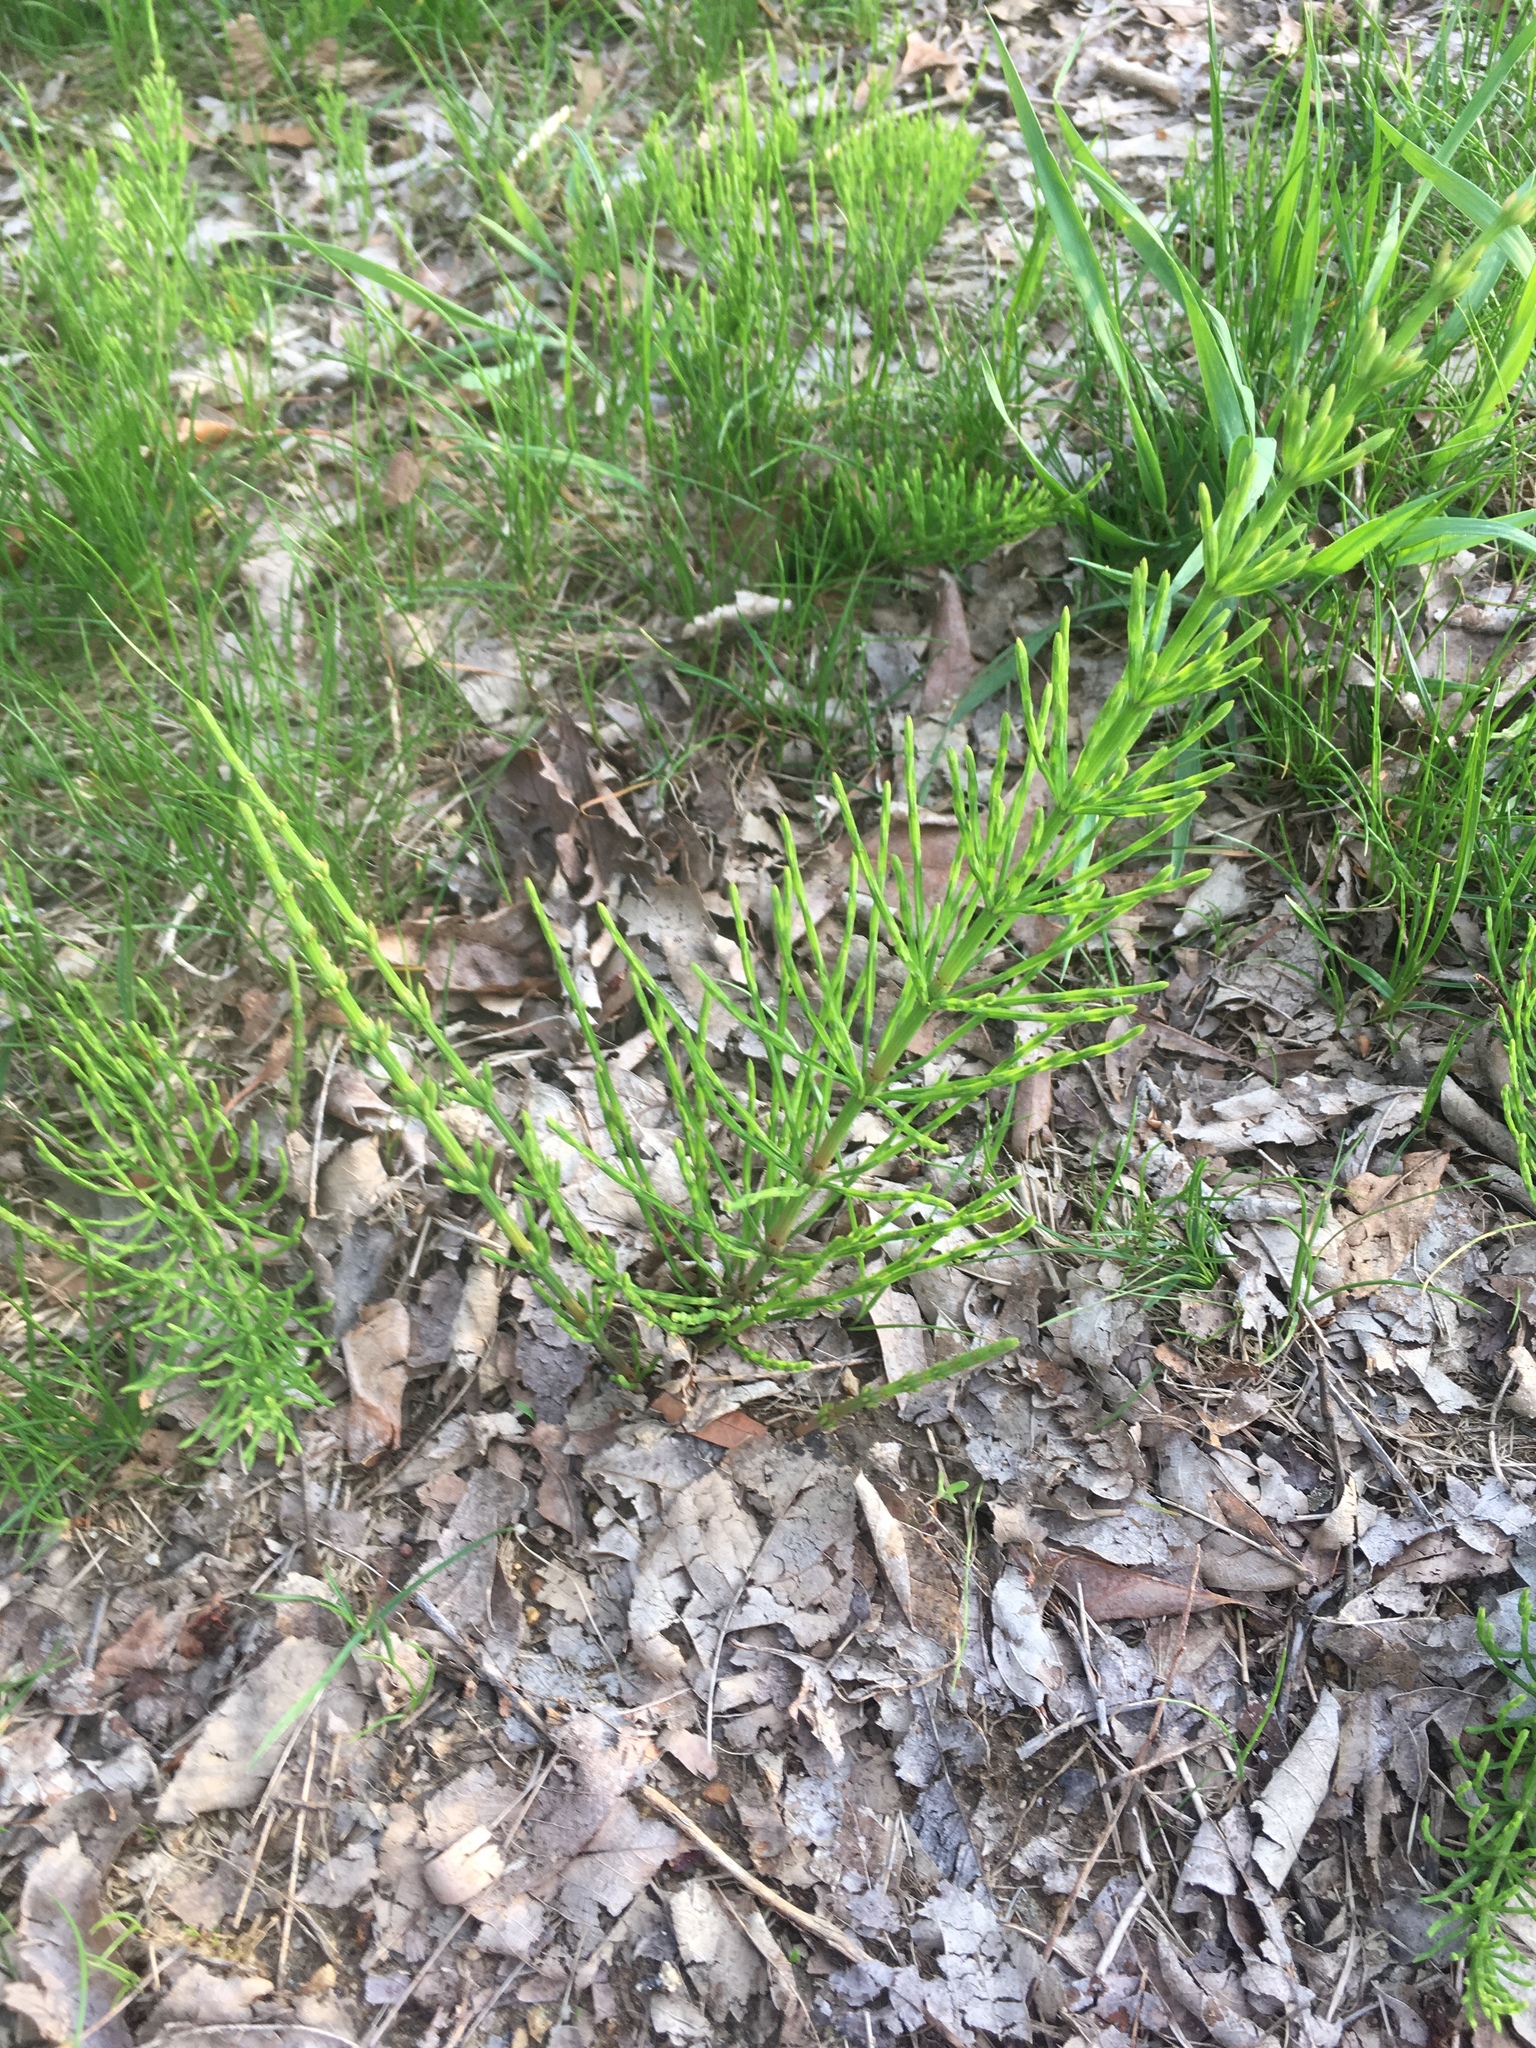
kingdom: Plantae
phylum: Tracheophyta
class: Polypodiopsida
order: Equisetales
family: Equisetaceae
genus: Equisetum
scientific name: Equisetum arvense
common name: Field horsetail
